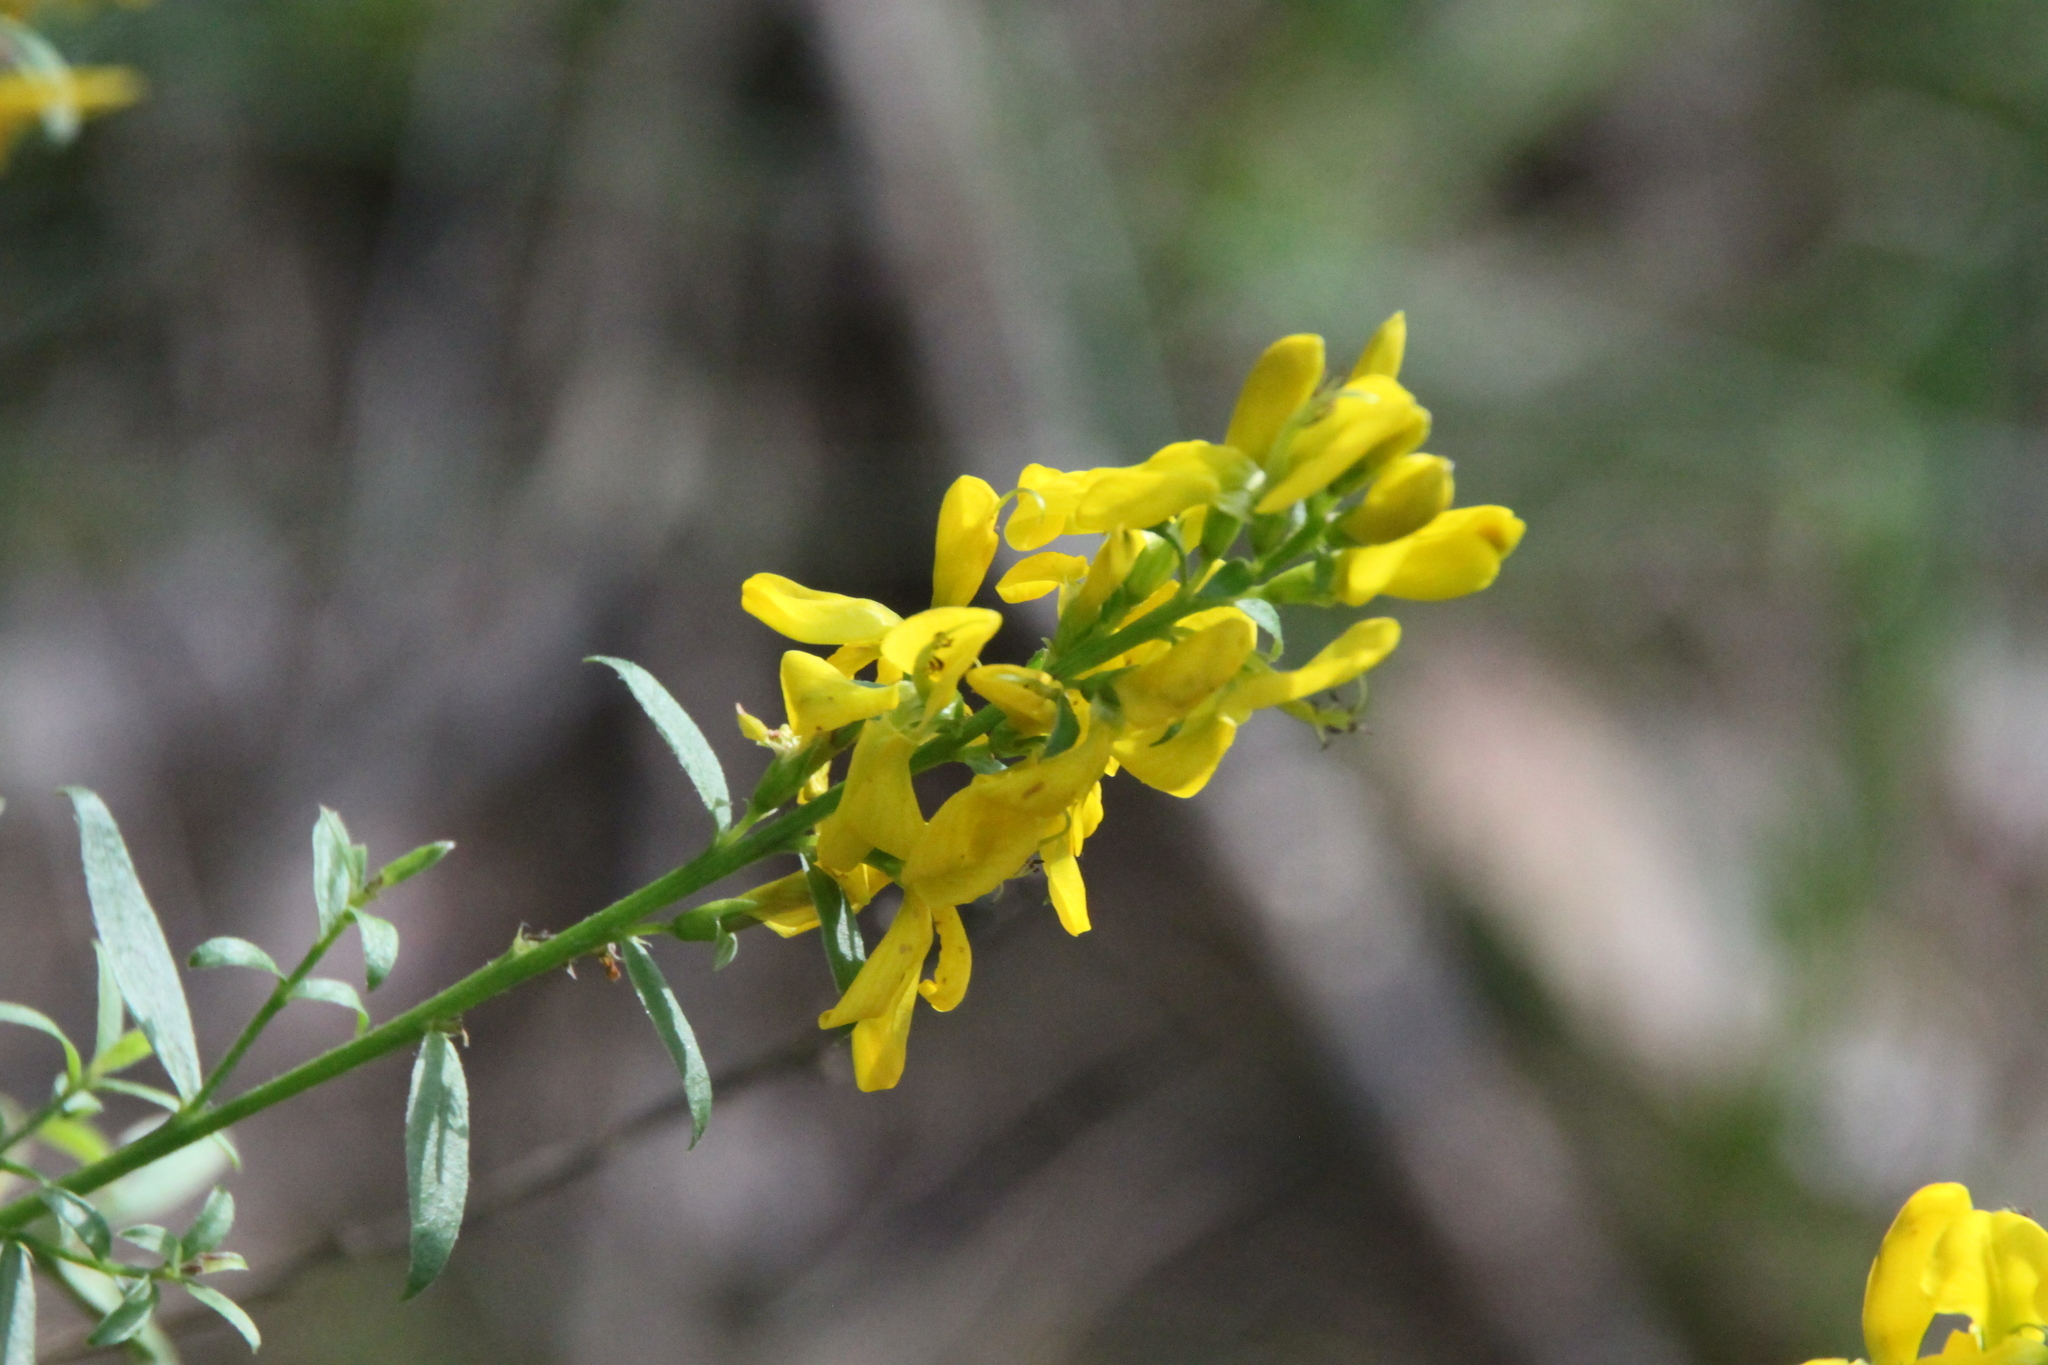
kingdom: Plantae
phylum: Tracheophyta
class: Magnoliopsida
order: Fabales
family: Fabaceae
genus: Genista
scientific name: Genista tinctoria
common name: Dyer's greenweed
